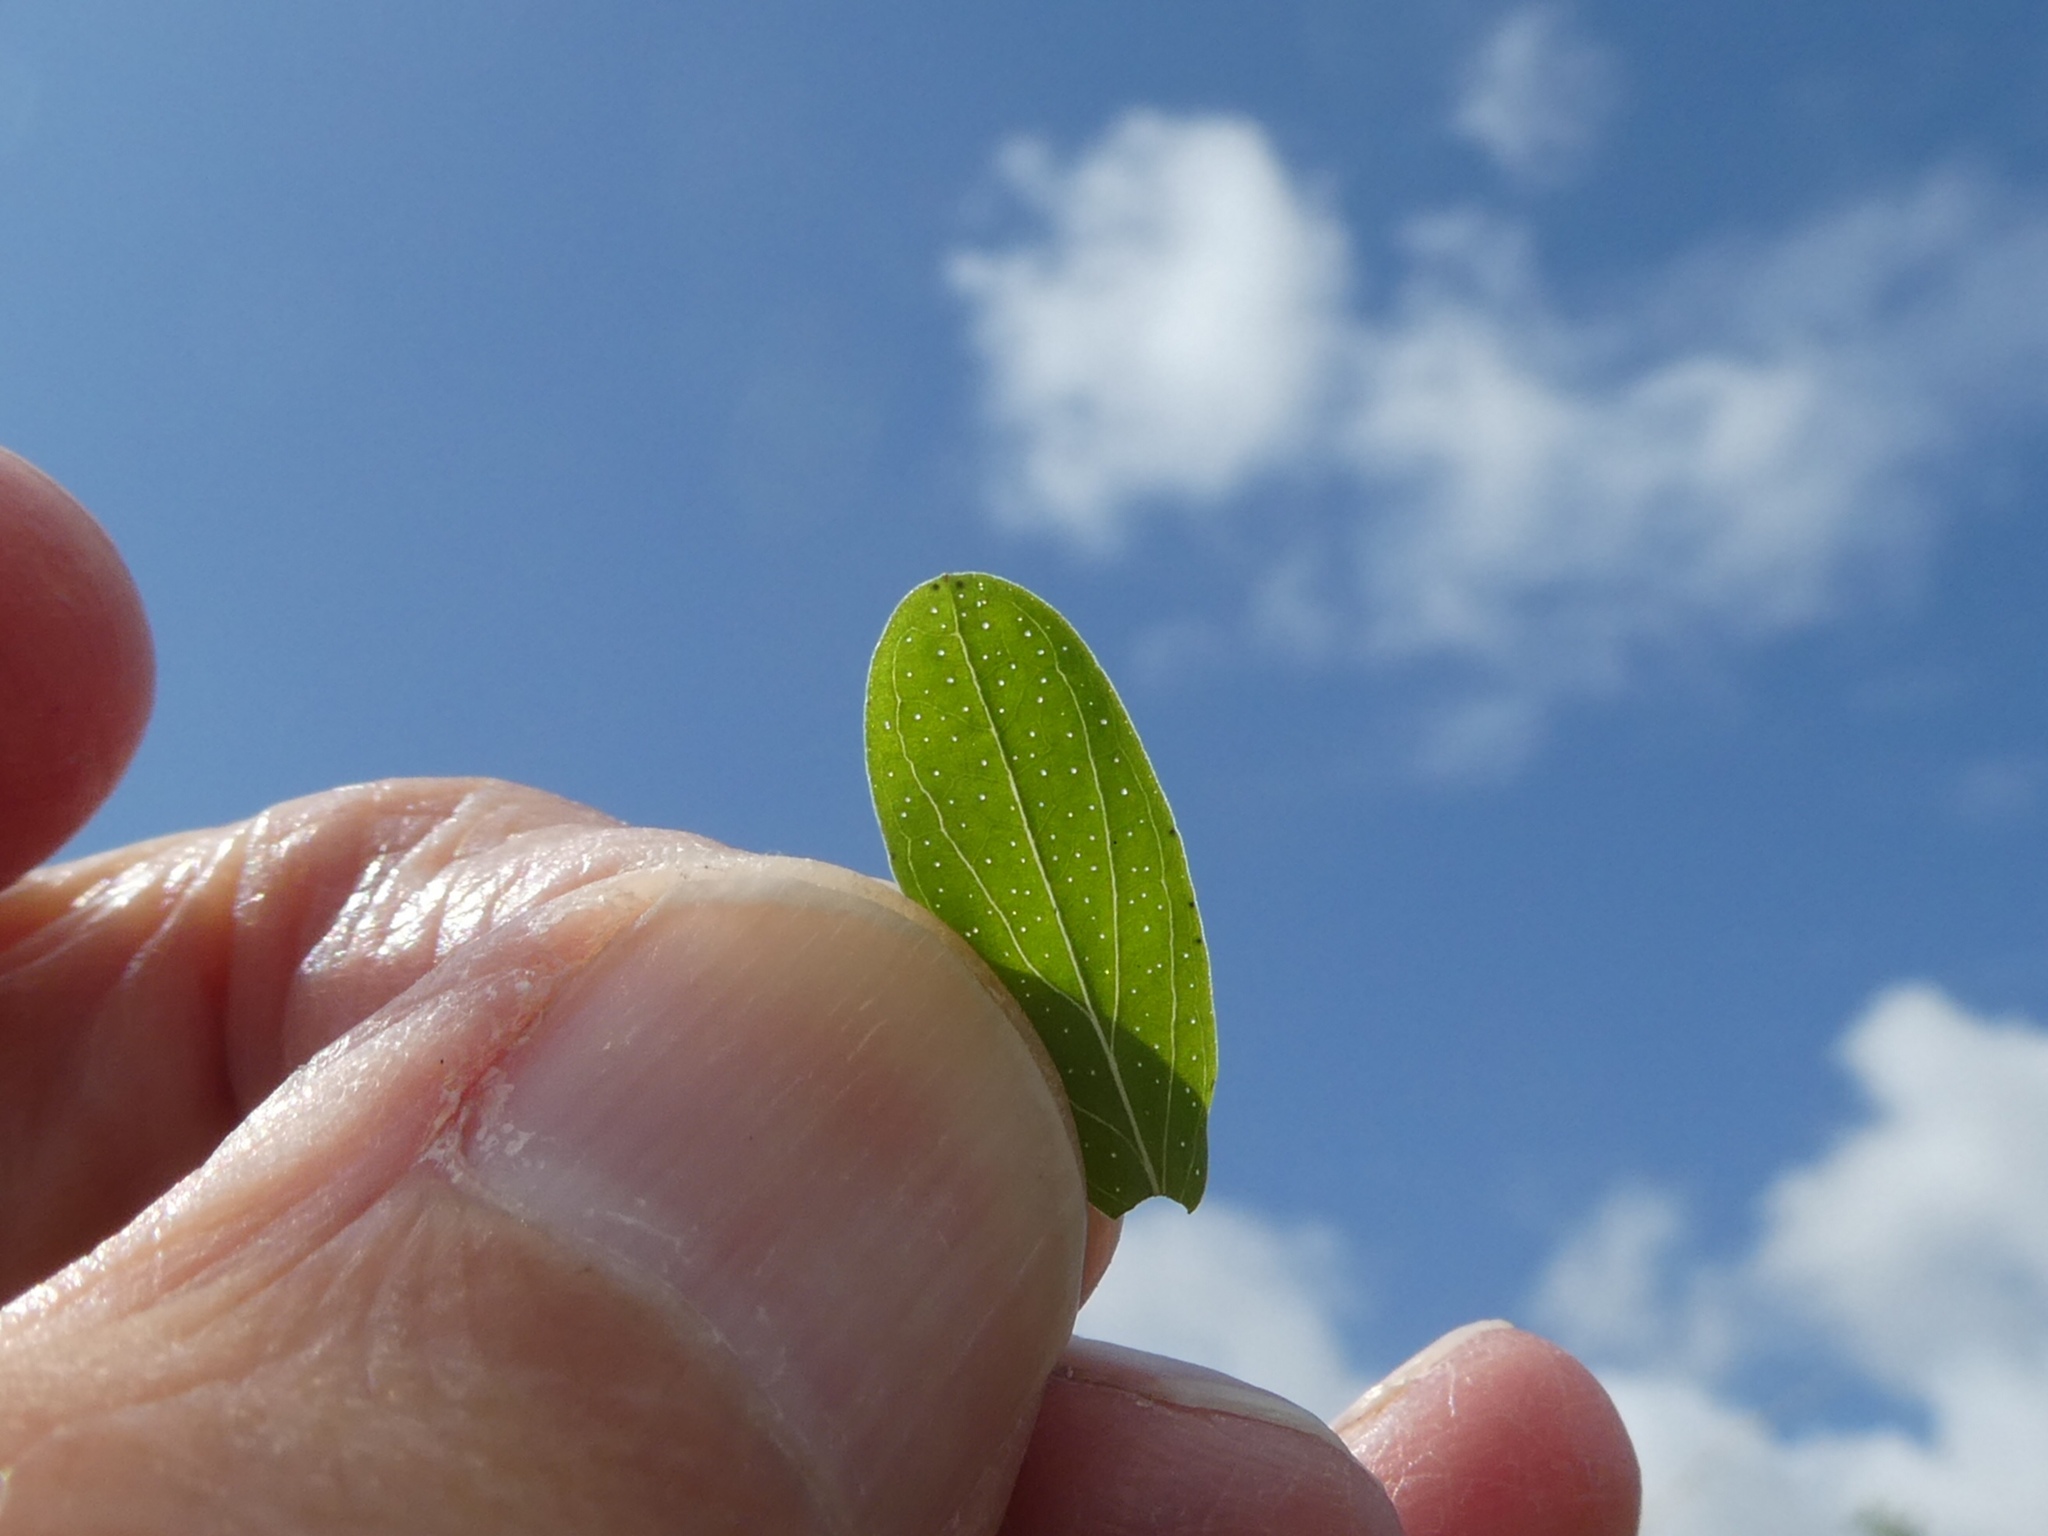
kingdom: Plantae
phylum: Tracheophyta
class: Magnoliopsida
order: Malpighiales
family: Hypericaceae
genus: Hypericum
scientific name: Hypericum perforatum
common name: Common st. johnswort
